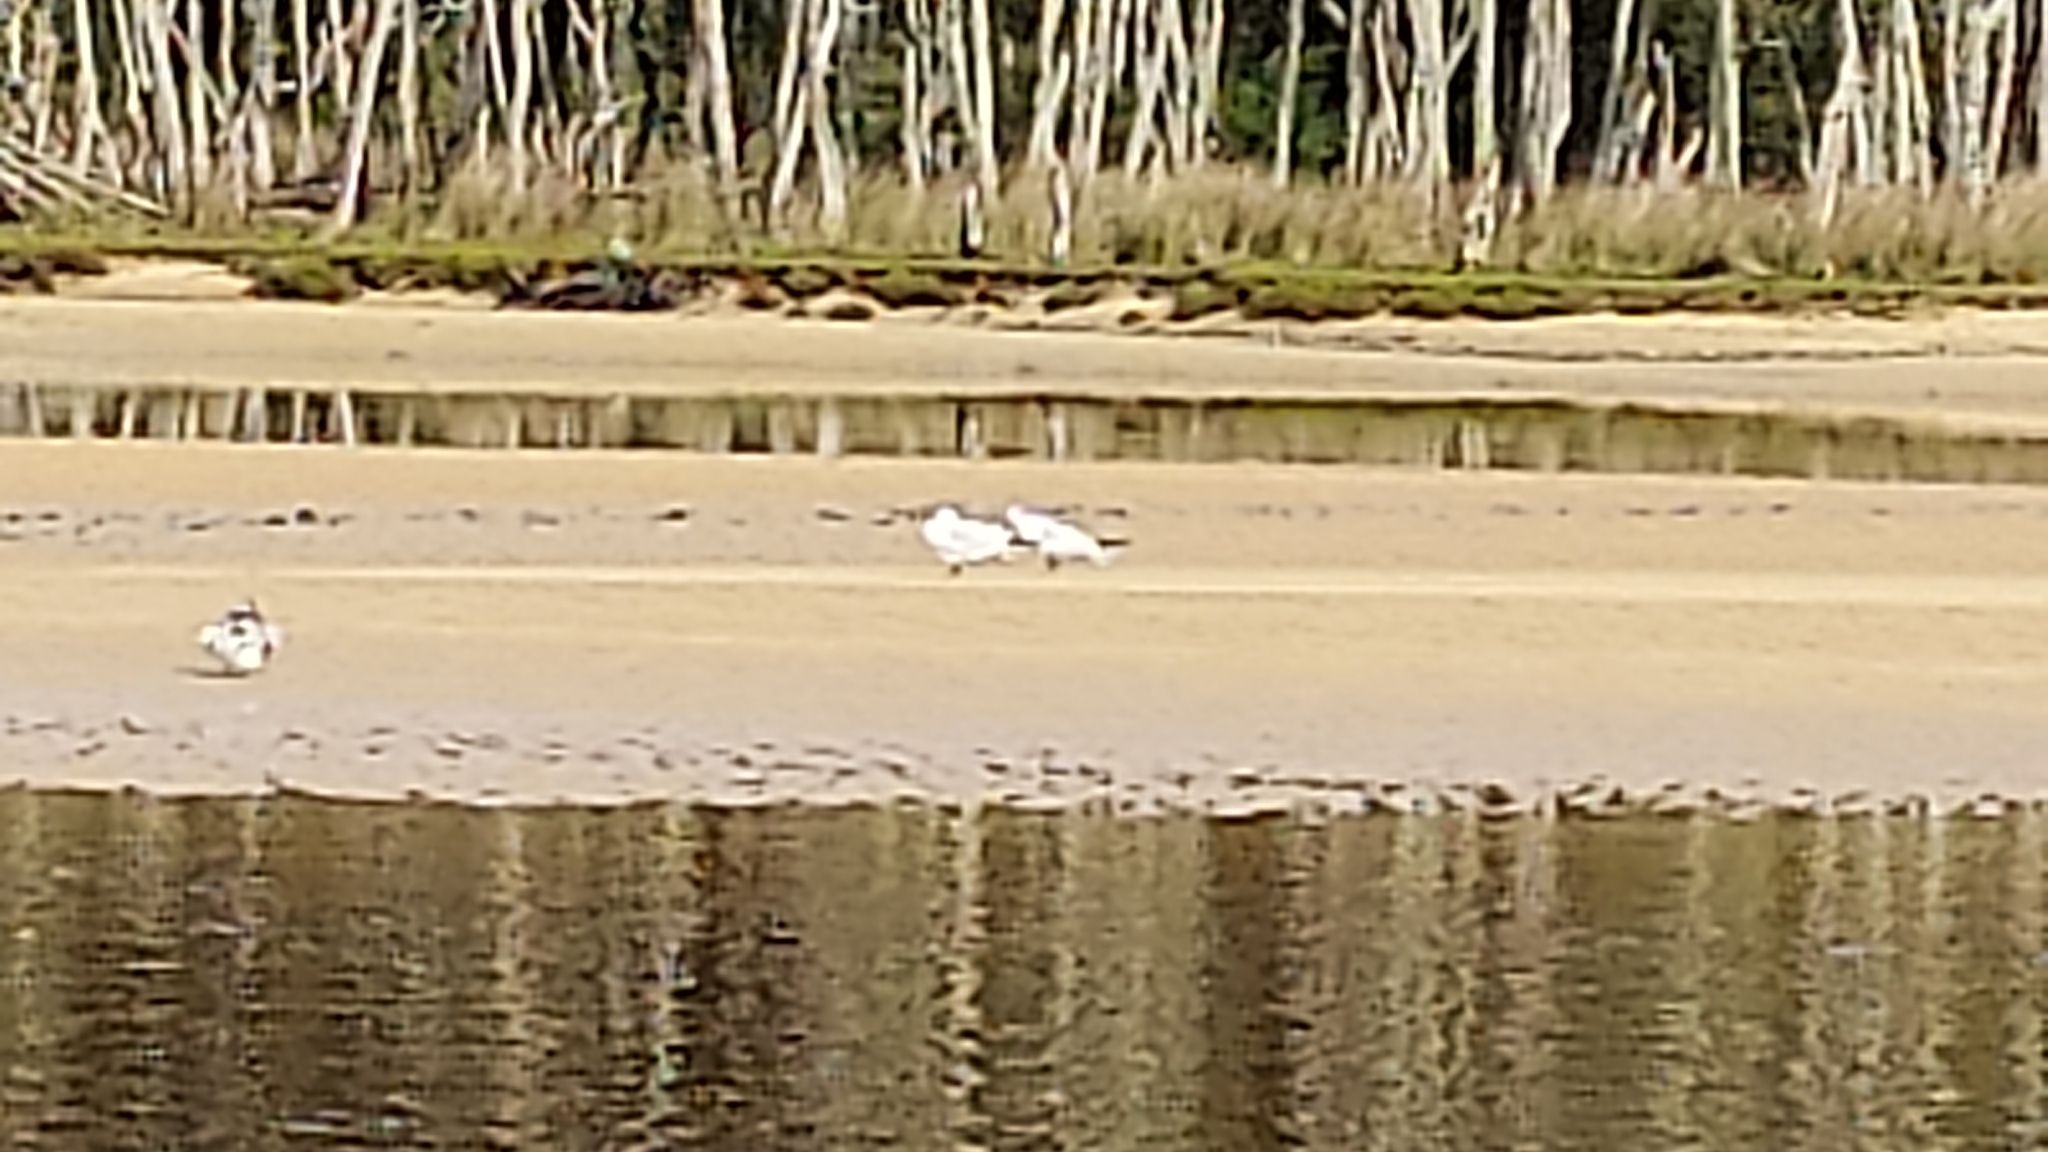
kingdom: Animalia
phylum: Chordata
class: Aves
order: Charadriiformes
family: Laridae
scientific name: Laridae
